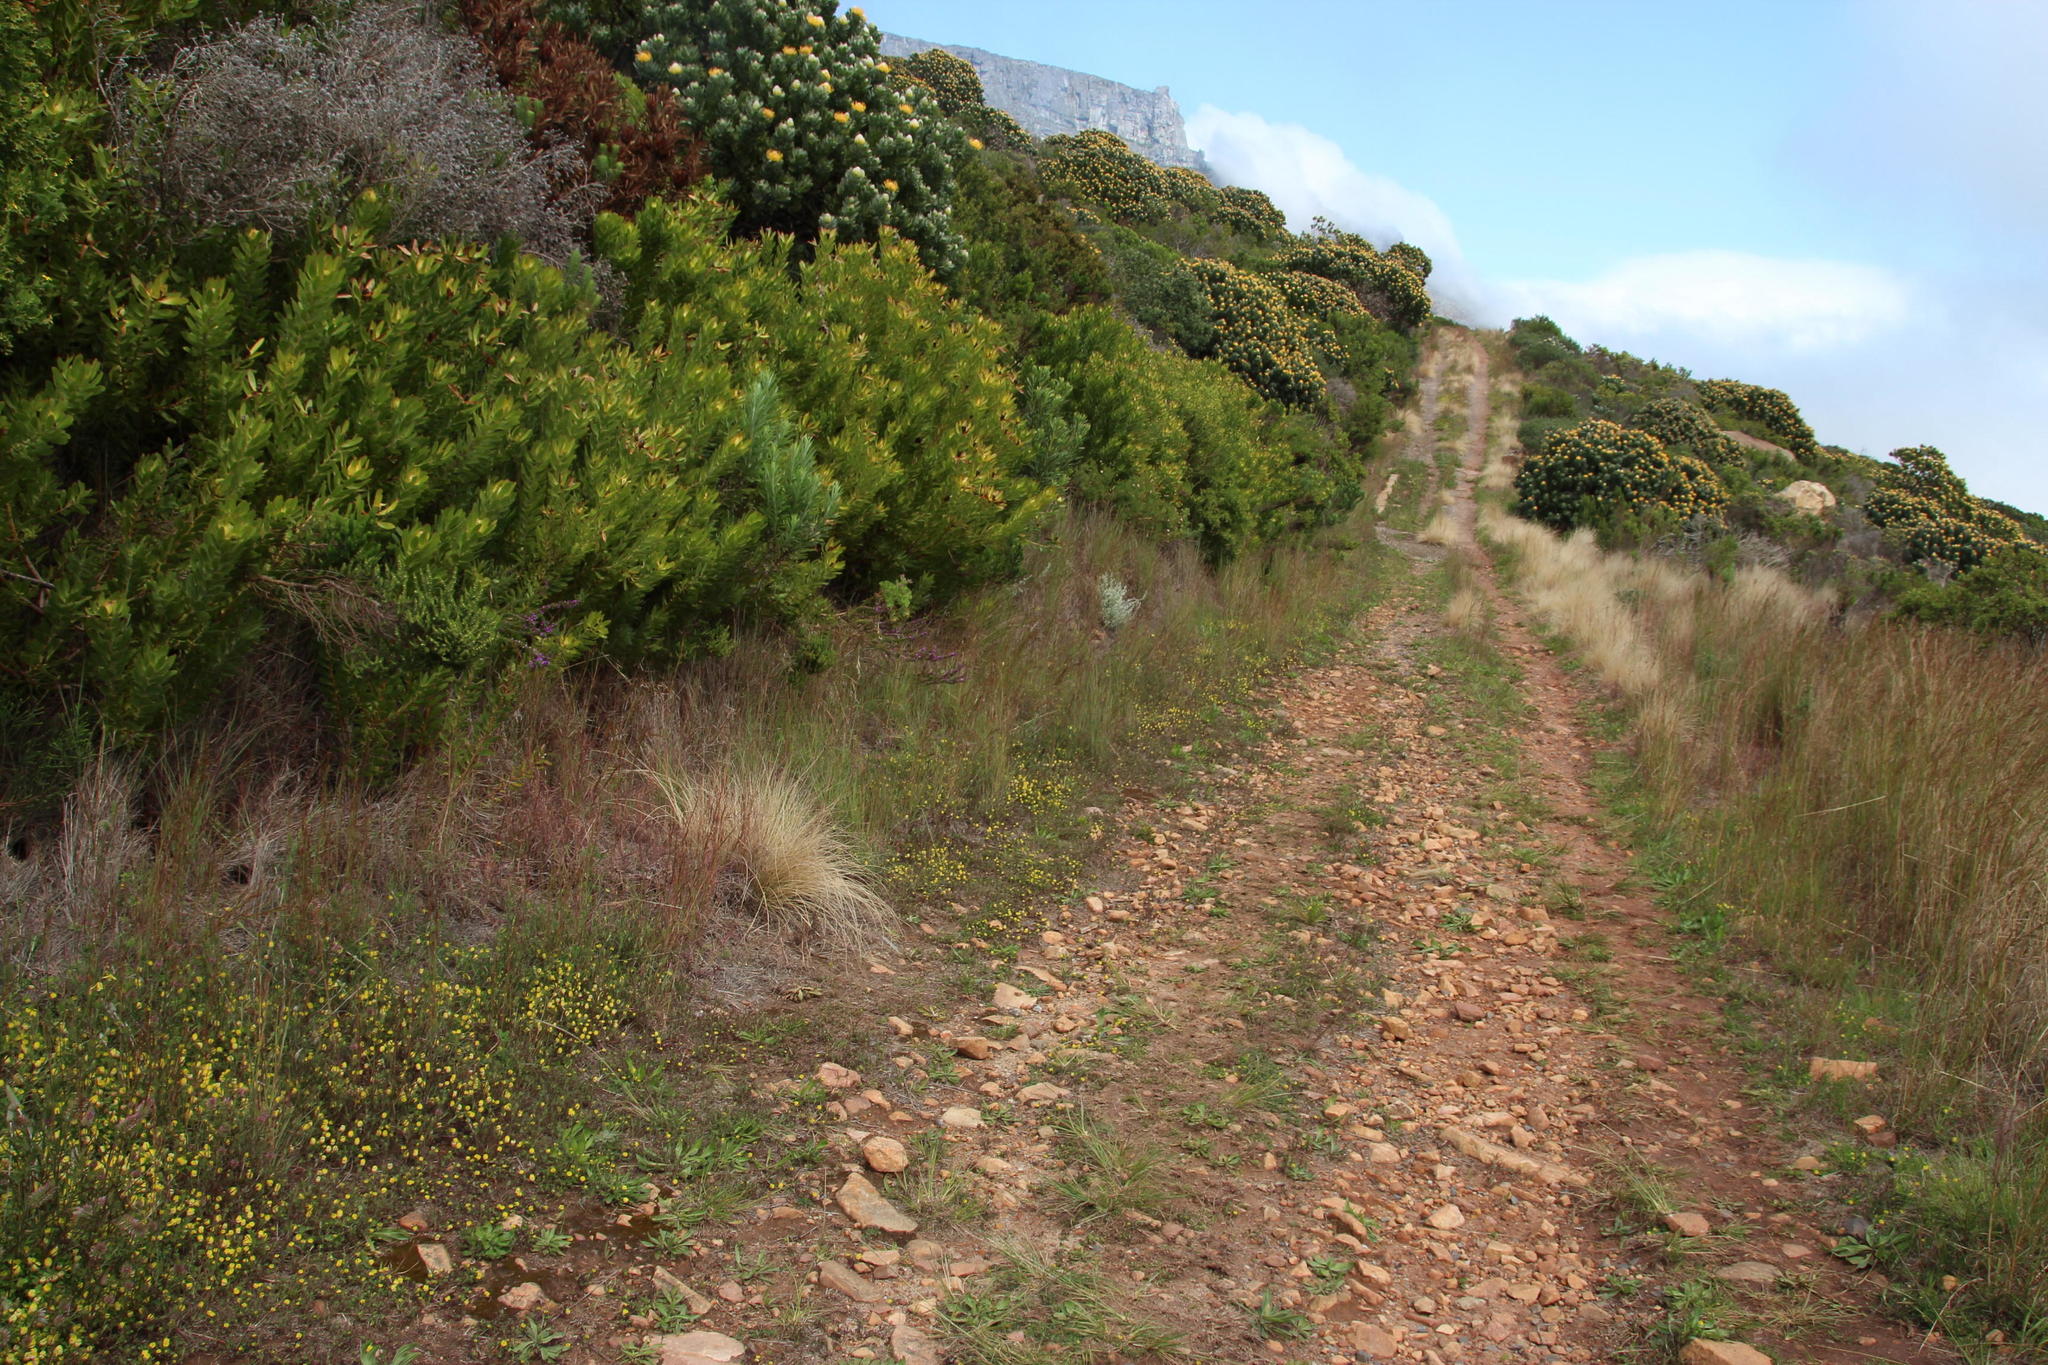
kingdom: Plantae
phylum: Tracheophyta
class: Magnoliopsida
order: Fabales
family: Fabaceae
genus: Medicago
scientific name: Medicago lupulina
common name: Black medick
